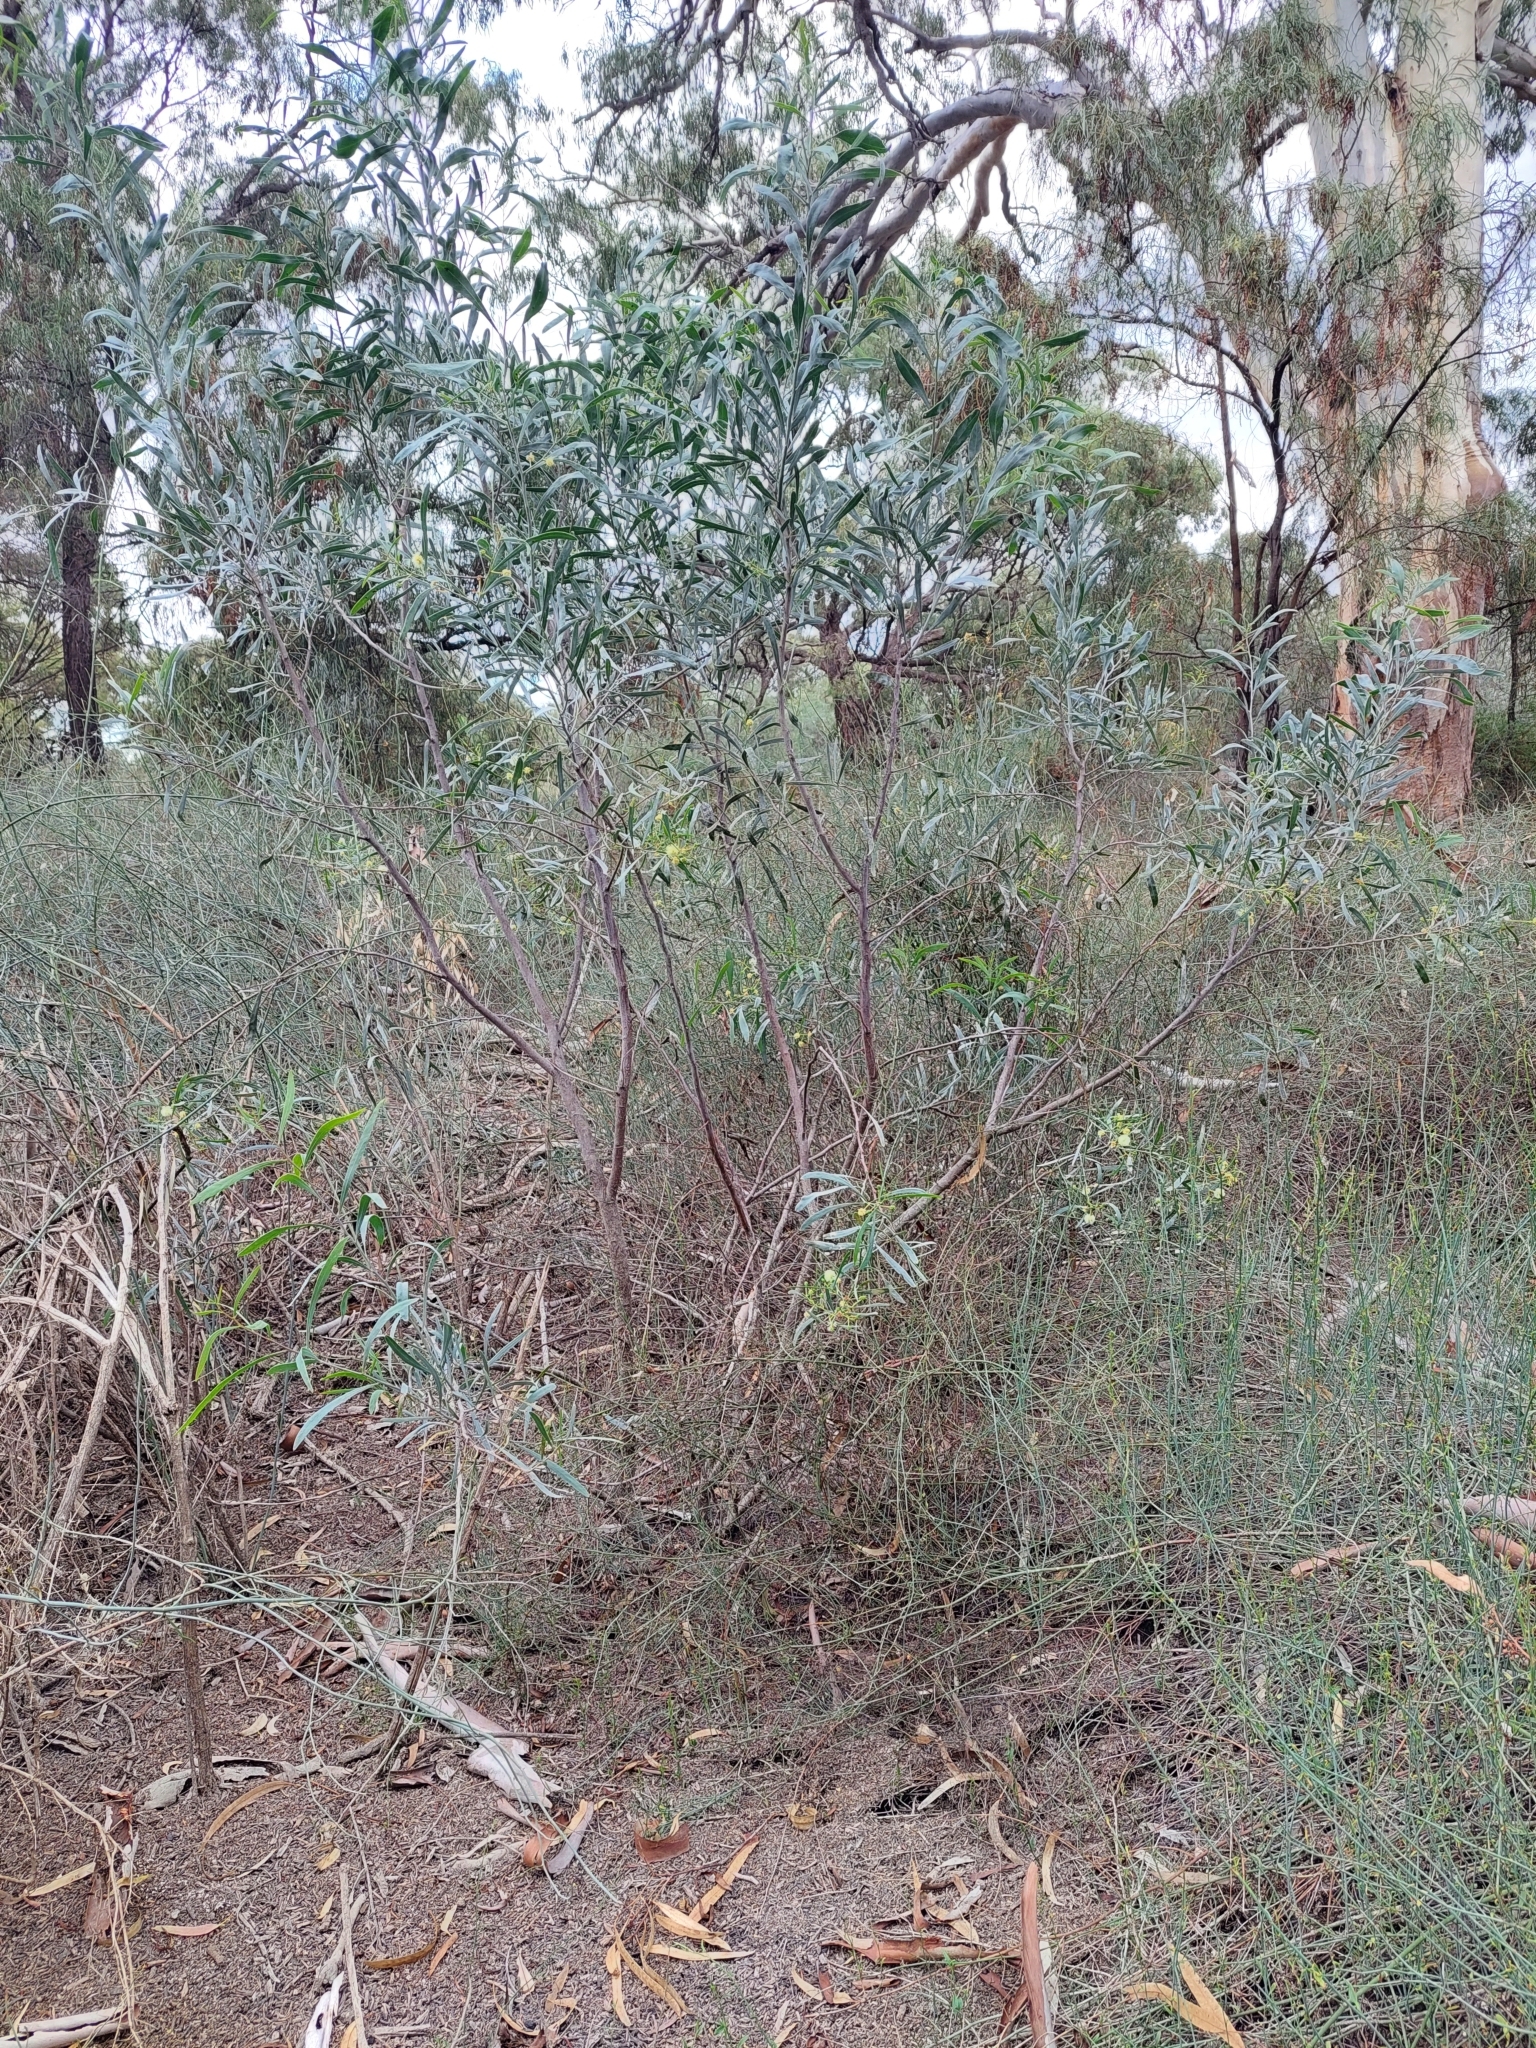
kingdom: Plantae
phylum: Tracheophyta
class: Magnoliopsida
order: Fabales
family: Fabaceae
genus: Acacia
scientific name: Acacia salicina
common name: Broughton willow wattle
